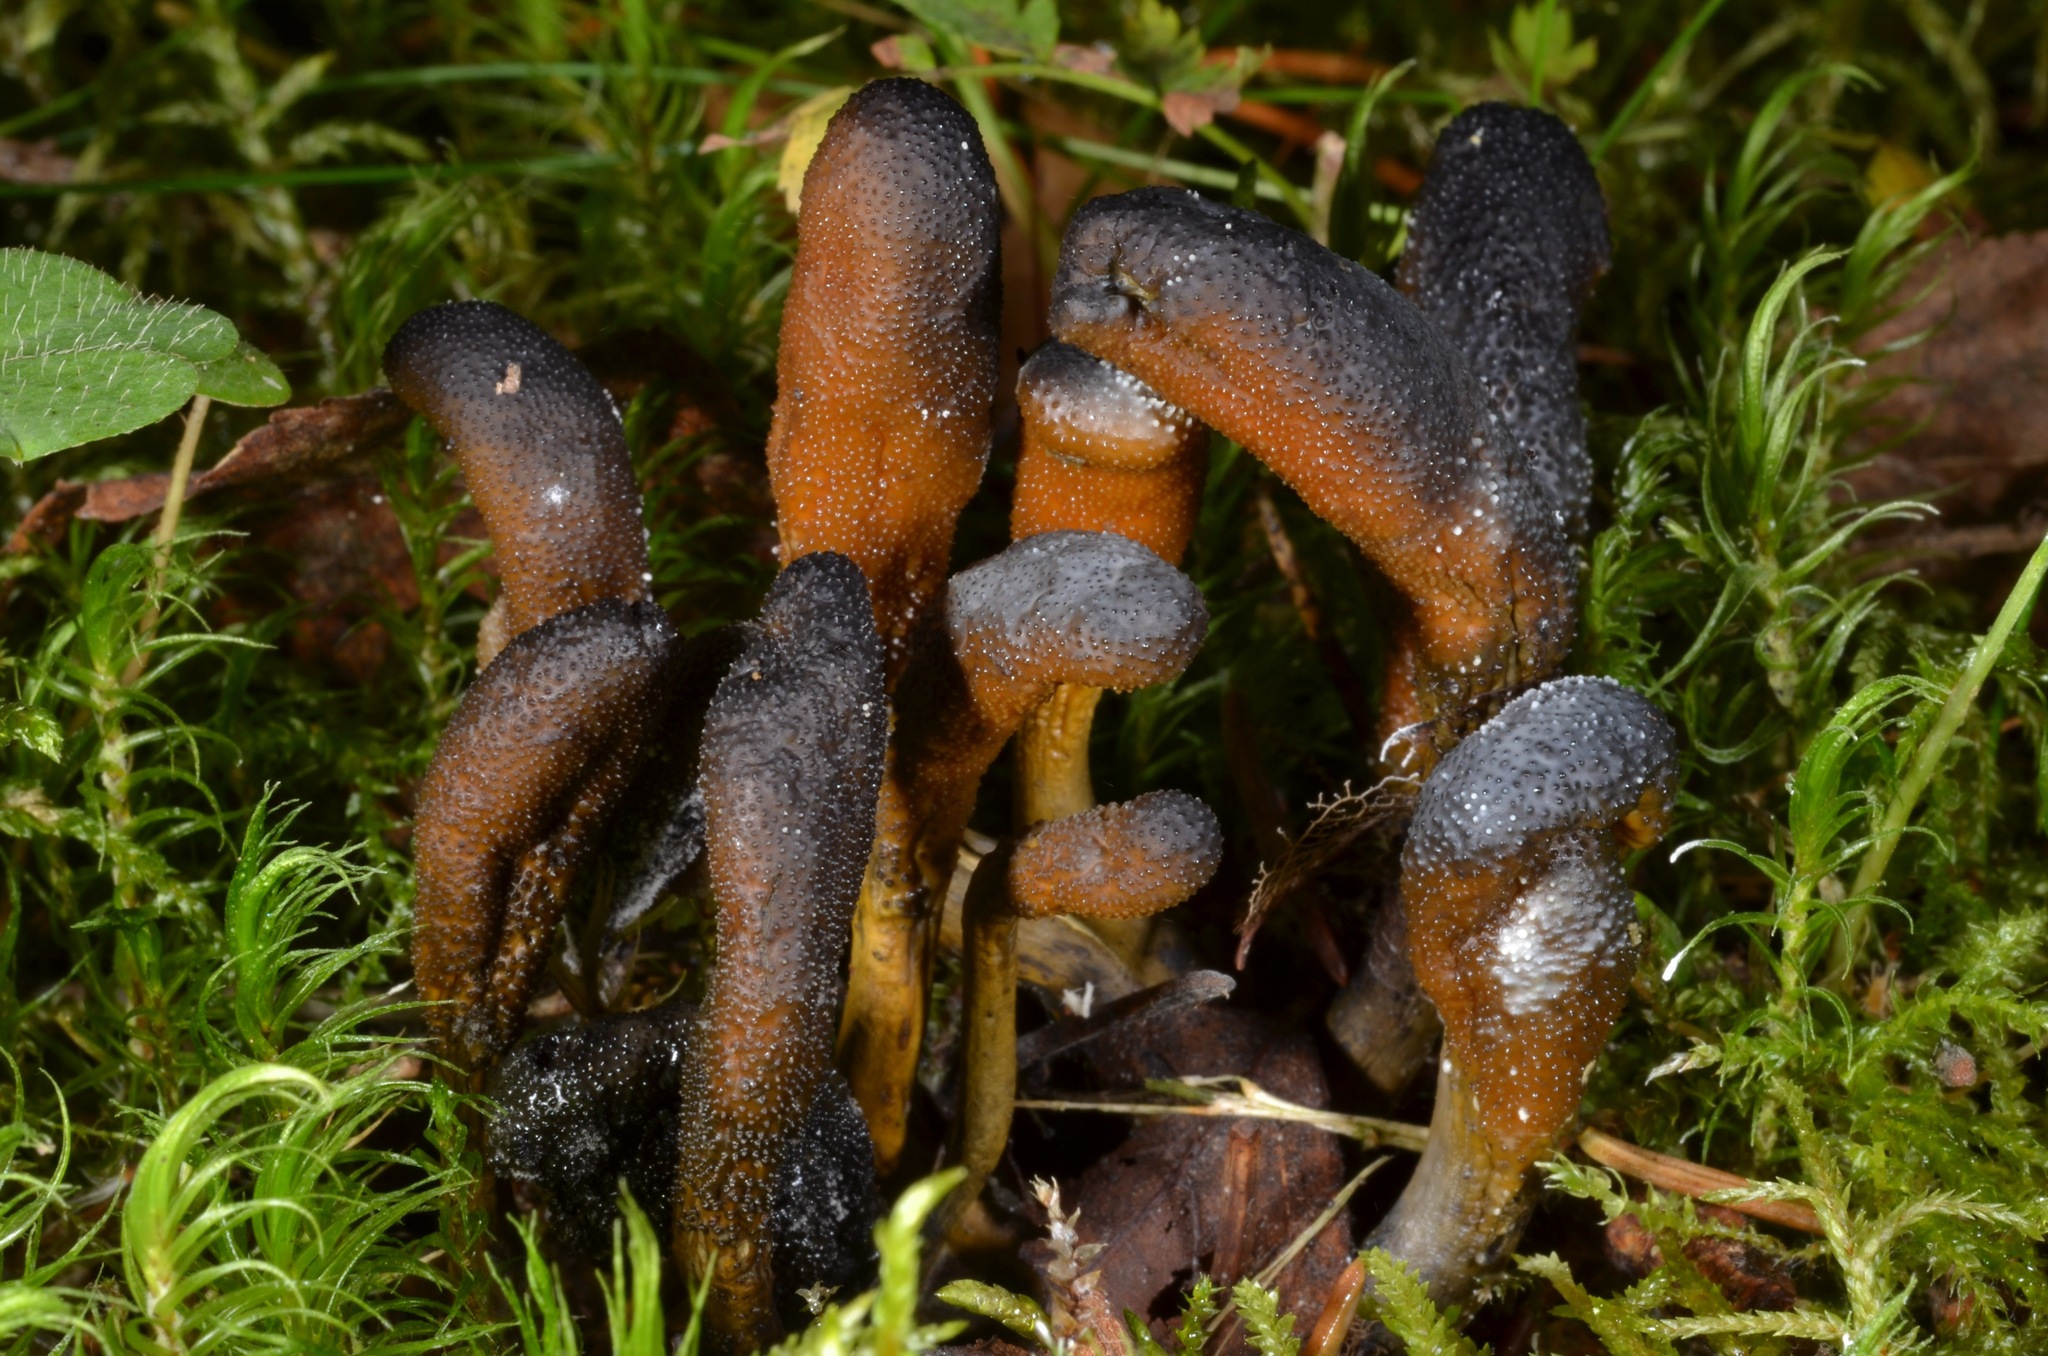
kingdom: Fungi
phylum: Ascomycota
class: Sordariomycetes
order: Hypocreales
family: Ophiocordycipitaceae
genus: Tolypocladium
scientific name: Tolypocladium ophioglossoides
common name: Snaketongue truffleclub
